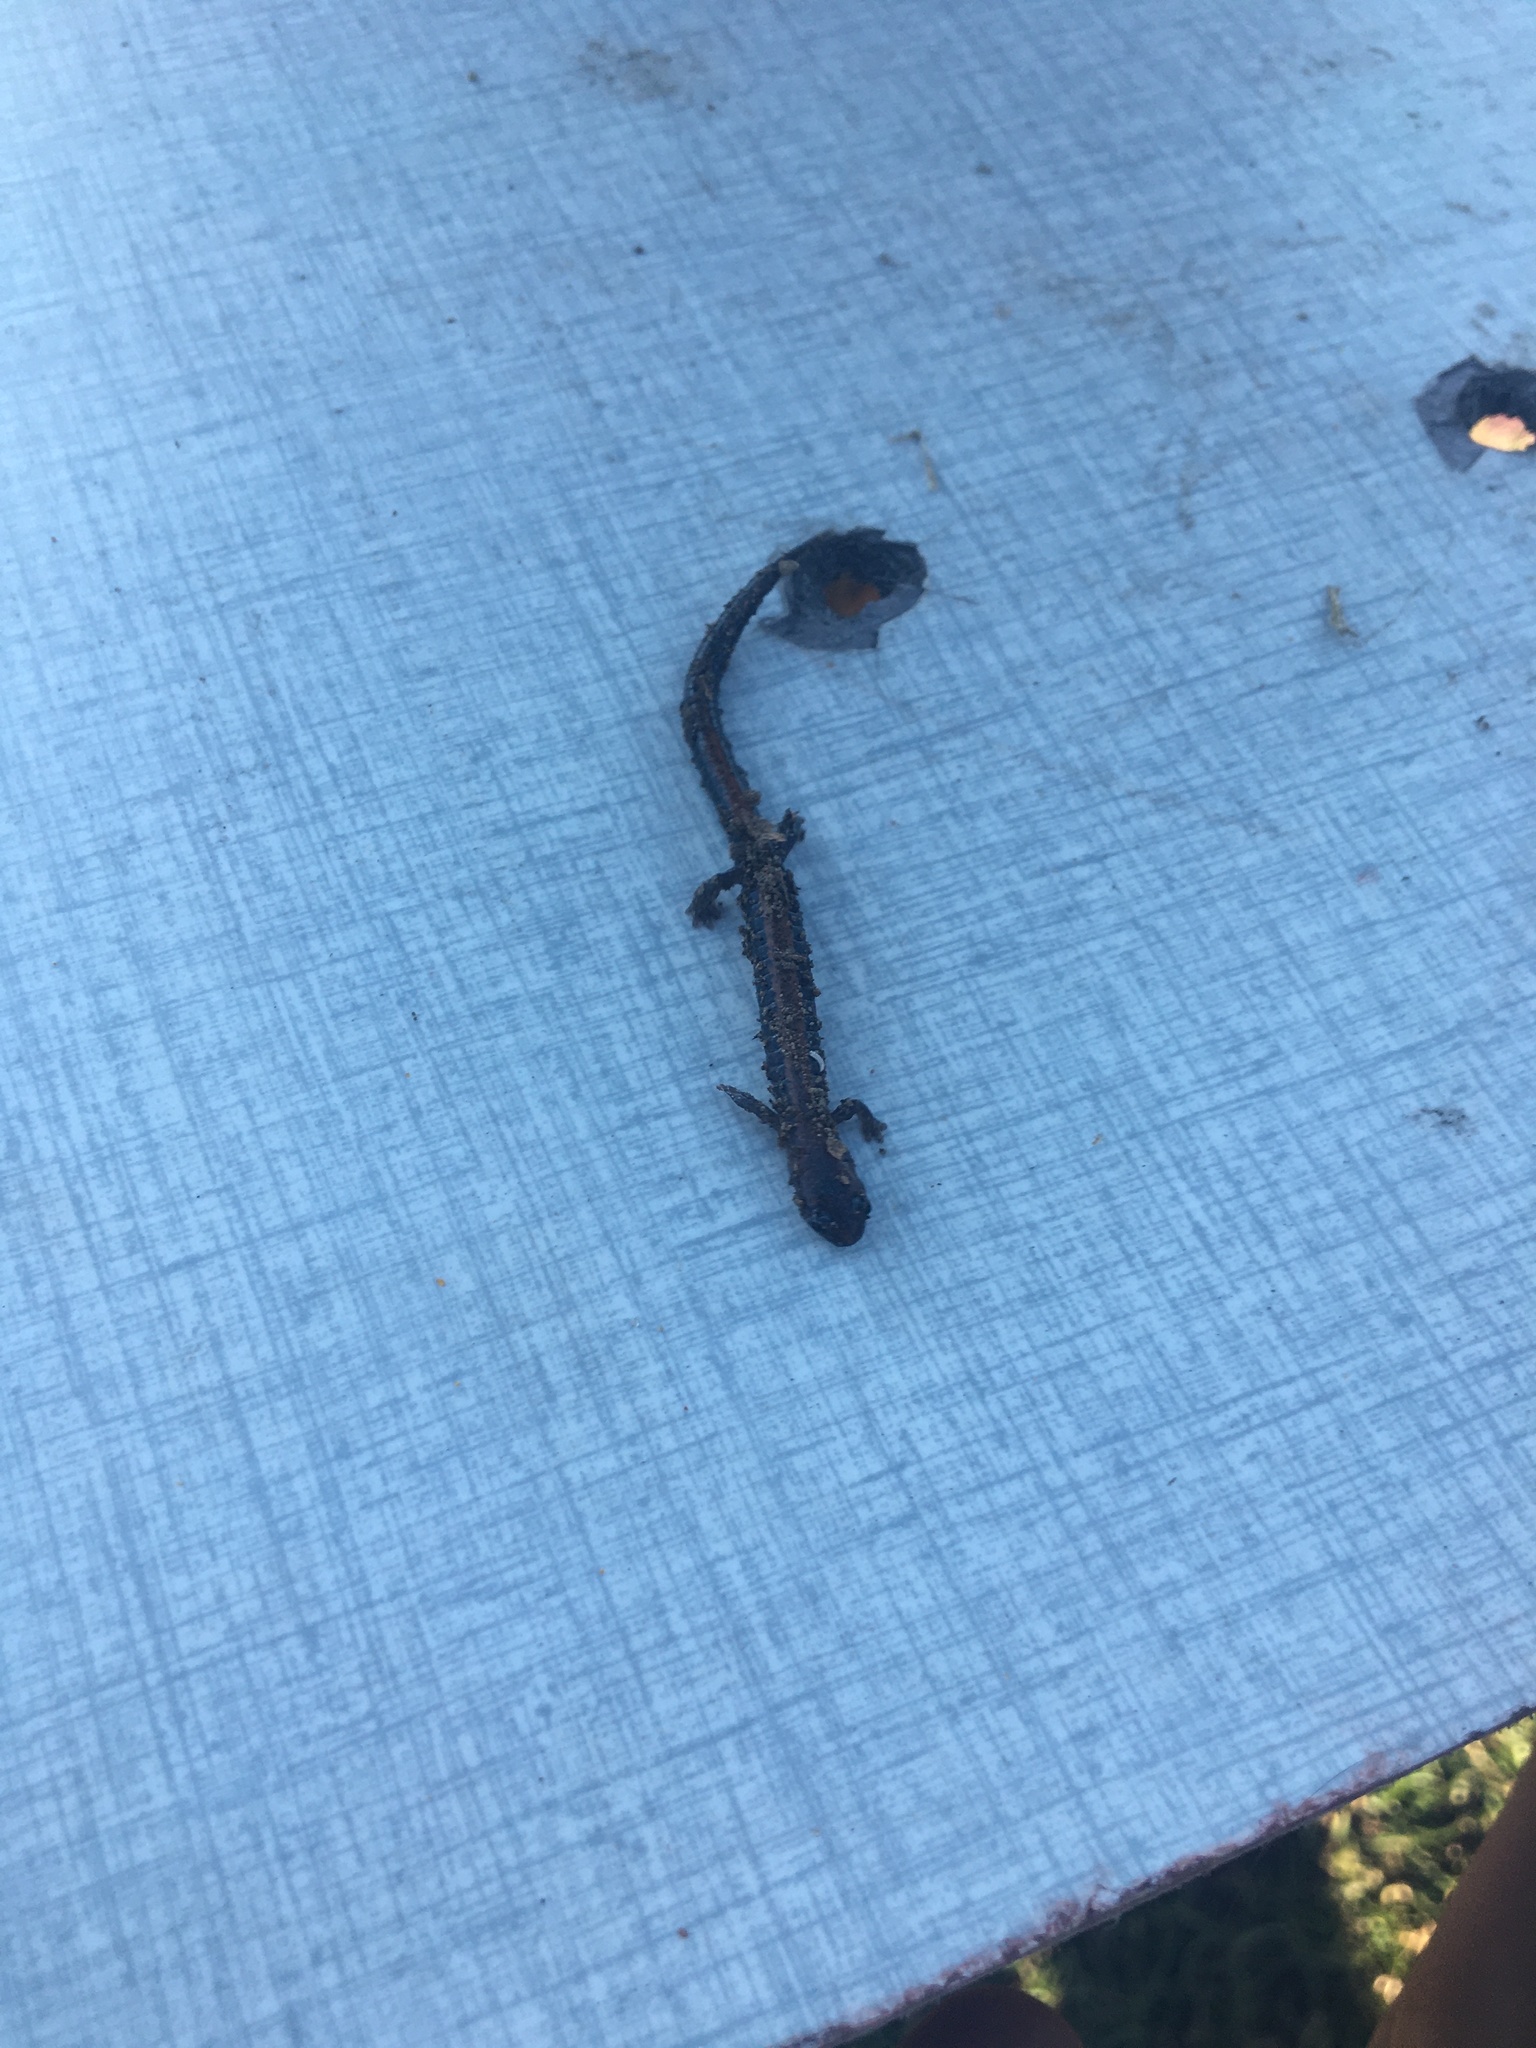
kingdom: Animalia
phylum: Chordata
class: Amphibia
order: Caudata
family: Plethodontidae
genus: Plethodon
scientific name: Plethodon cinereus
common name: Redback salamander
